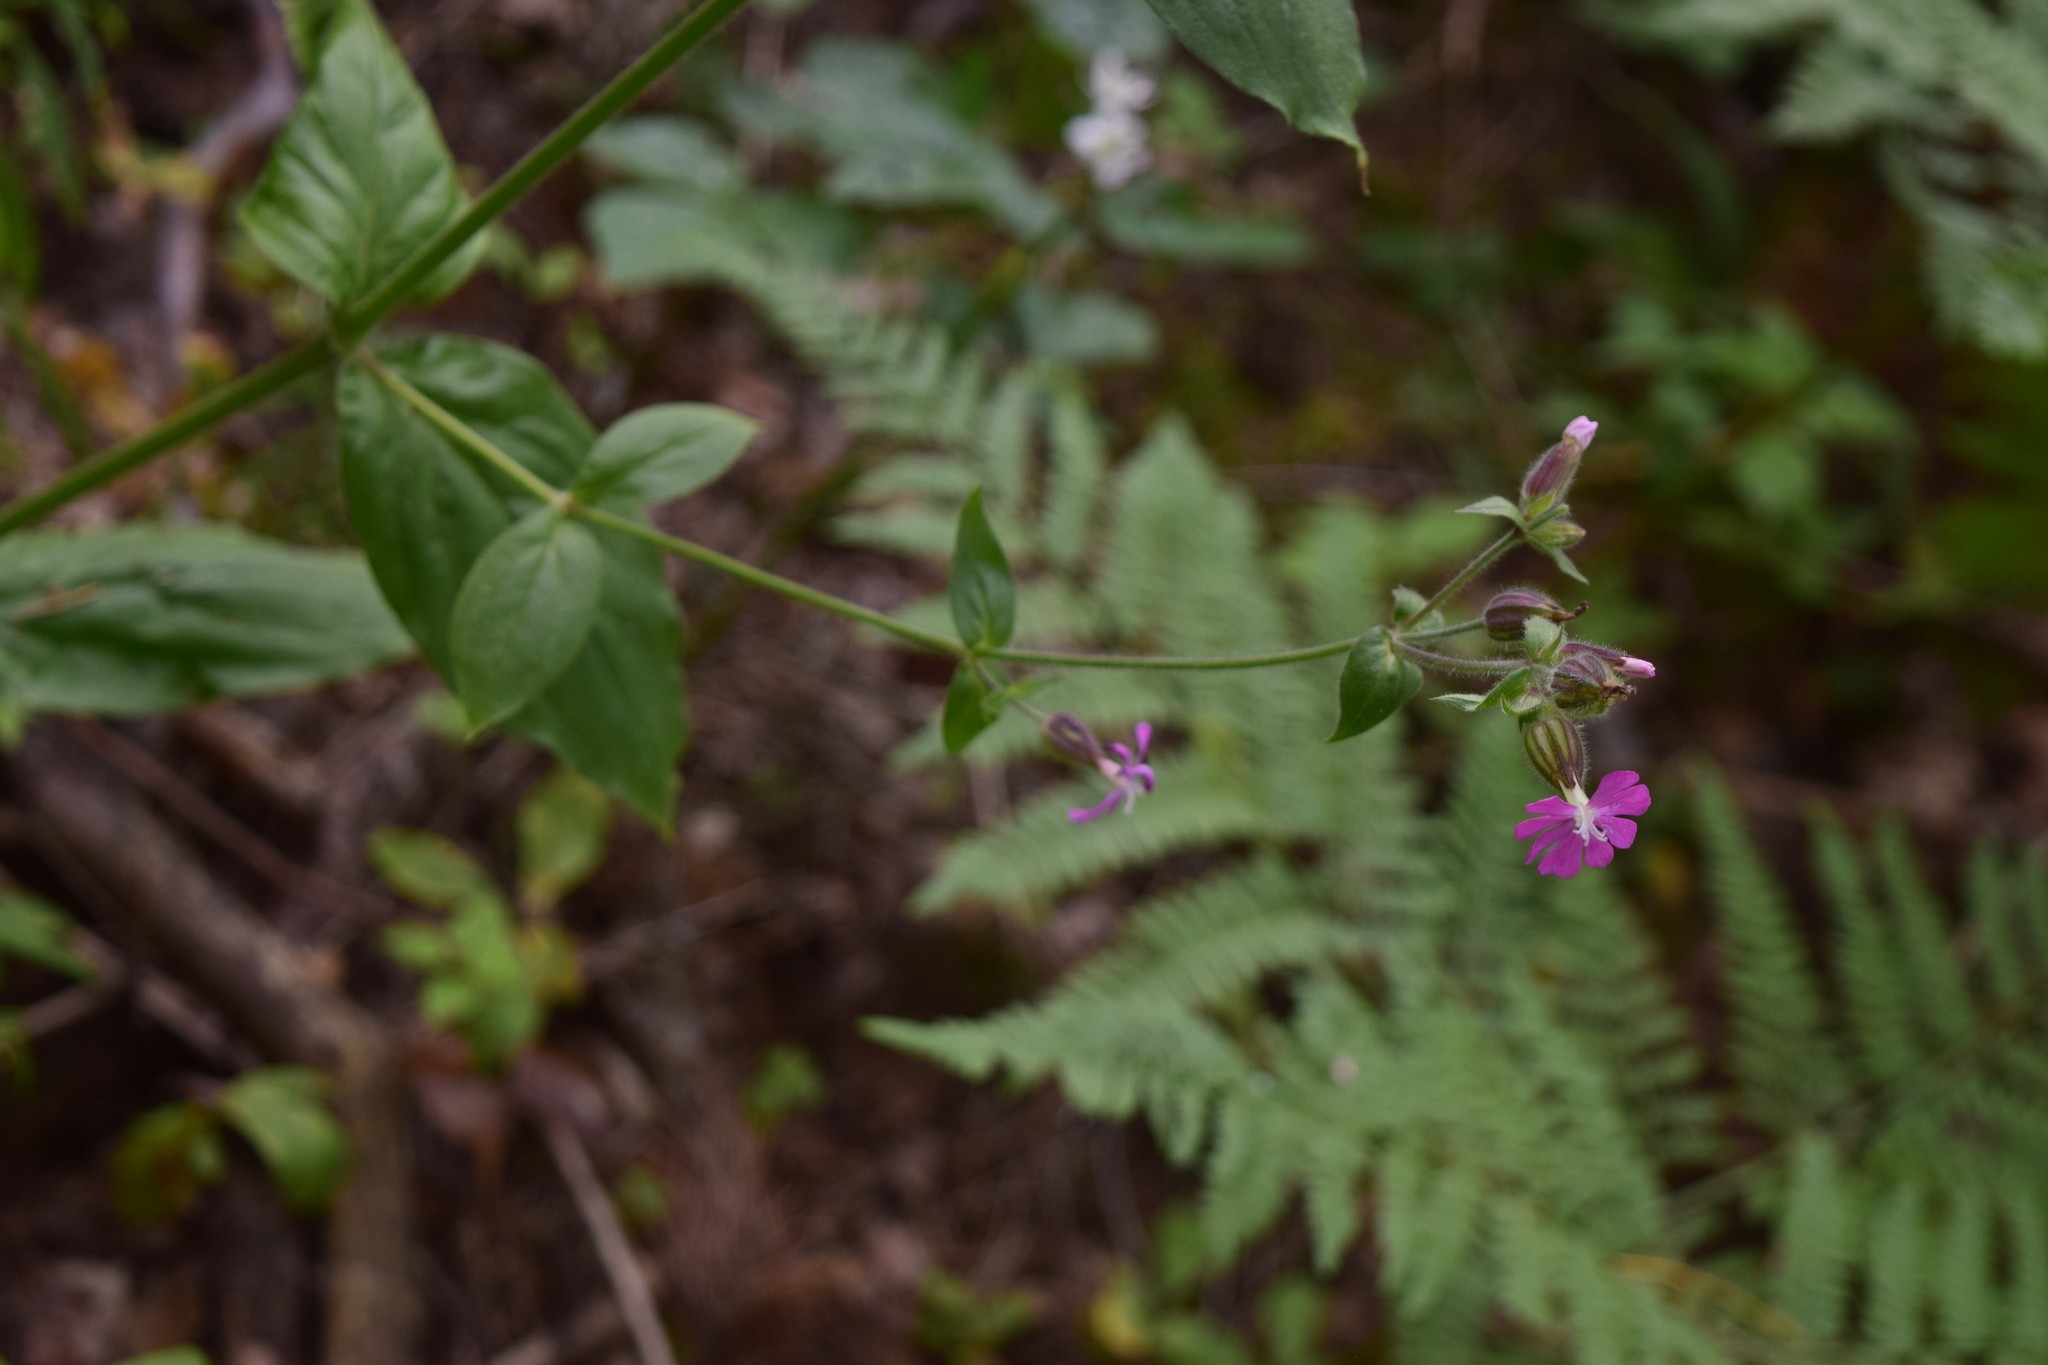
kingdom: Plantae
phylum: Tracheophyta
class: Magnoliopsida
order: Caryophyllales
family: Caryophyllaceae
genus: Silene
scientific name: Silene dioica
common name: Red campion
